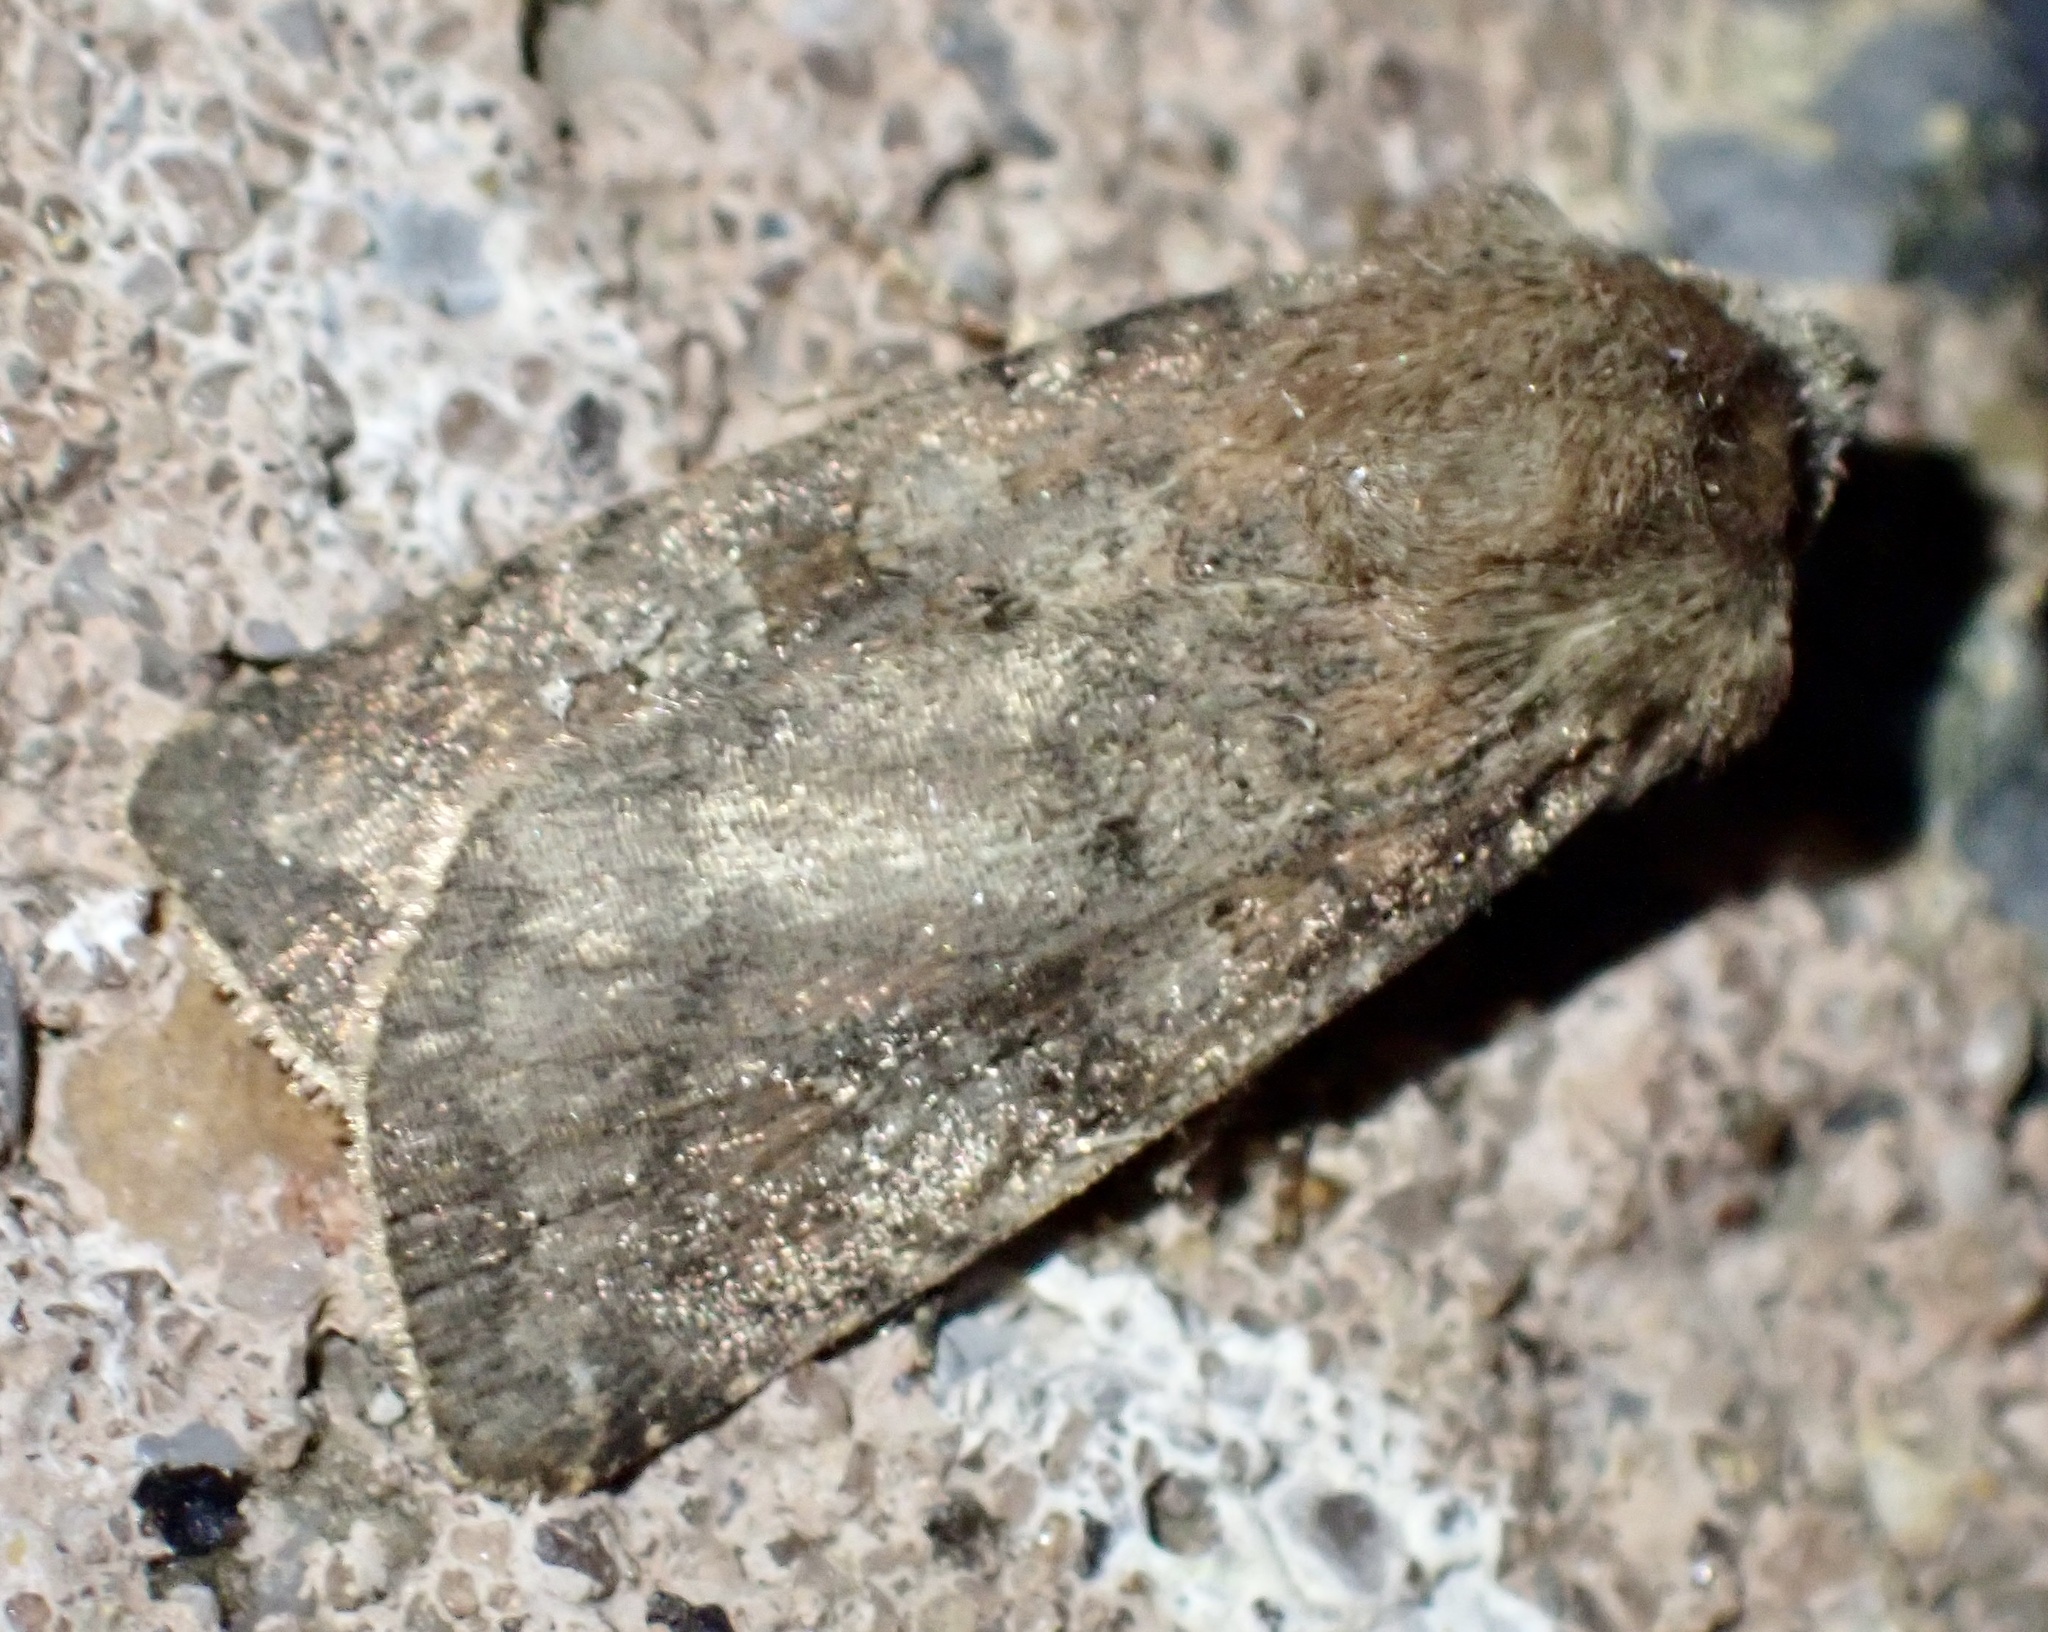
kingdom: Animalia
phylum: Arthropoda
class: Insecta
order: Lepidoptera
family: Noctuidae
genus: Diarsia
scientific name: Diarsia rubi
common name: Small square-spot
